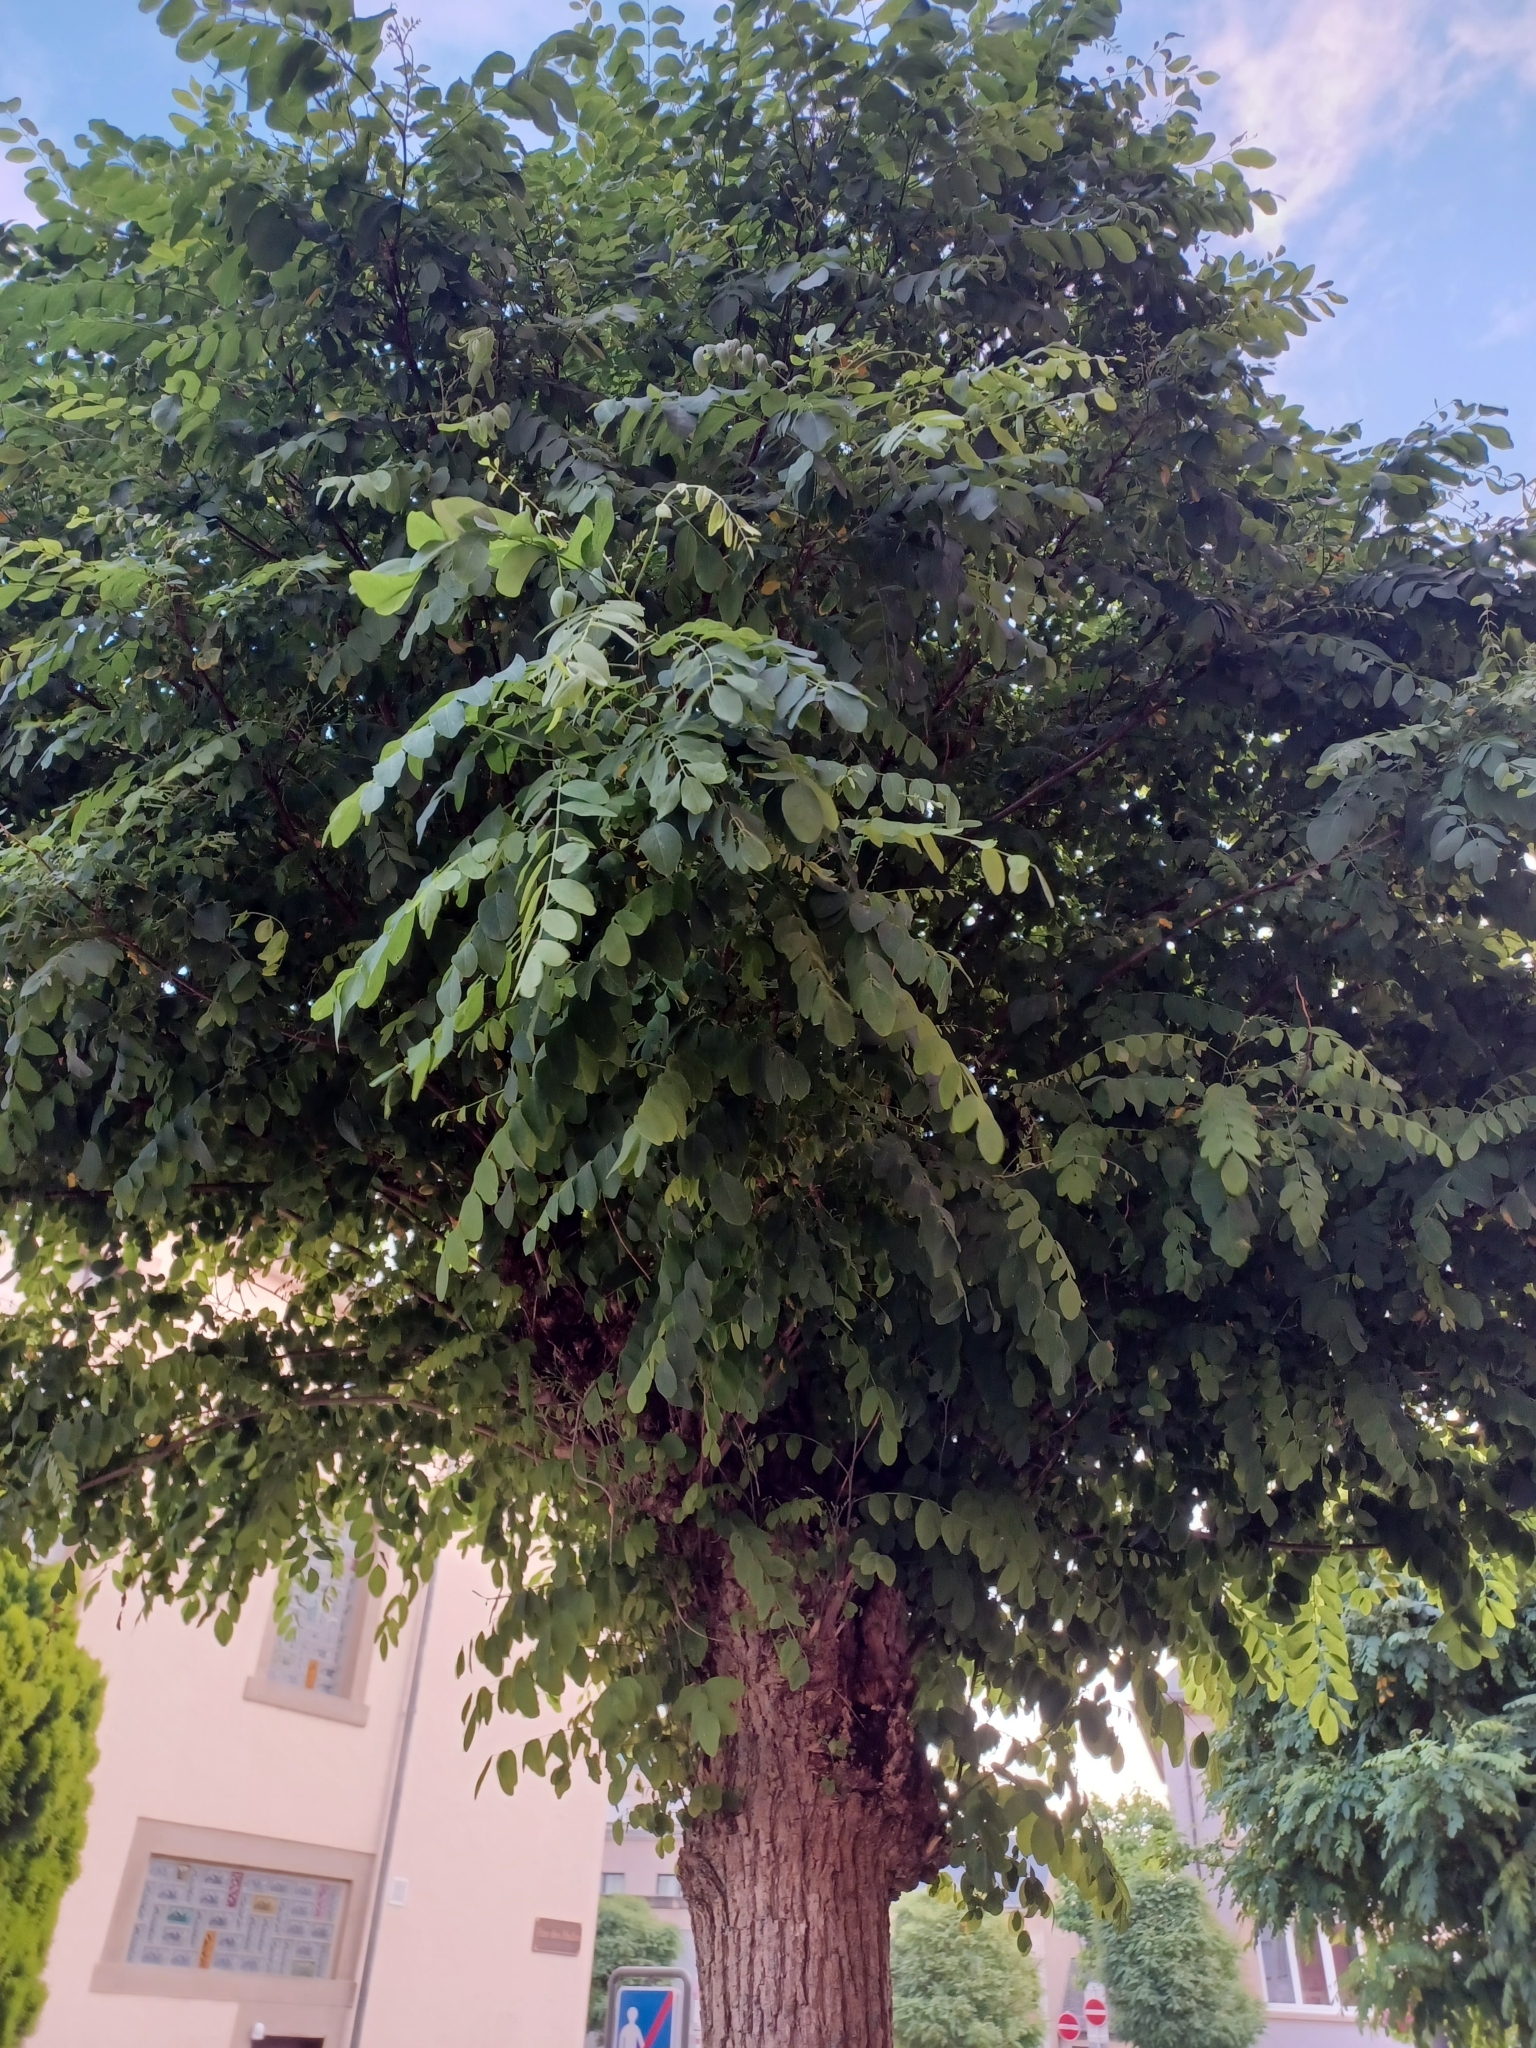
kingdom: Plantae
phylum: Tracheophyta
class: Magnoliopsida
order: Fabales
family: Fabaceae
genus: Robinia
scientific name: Robinia pseudoacacia
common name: Black locust
